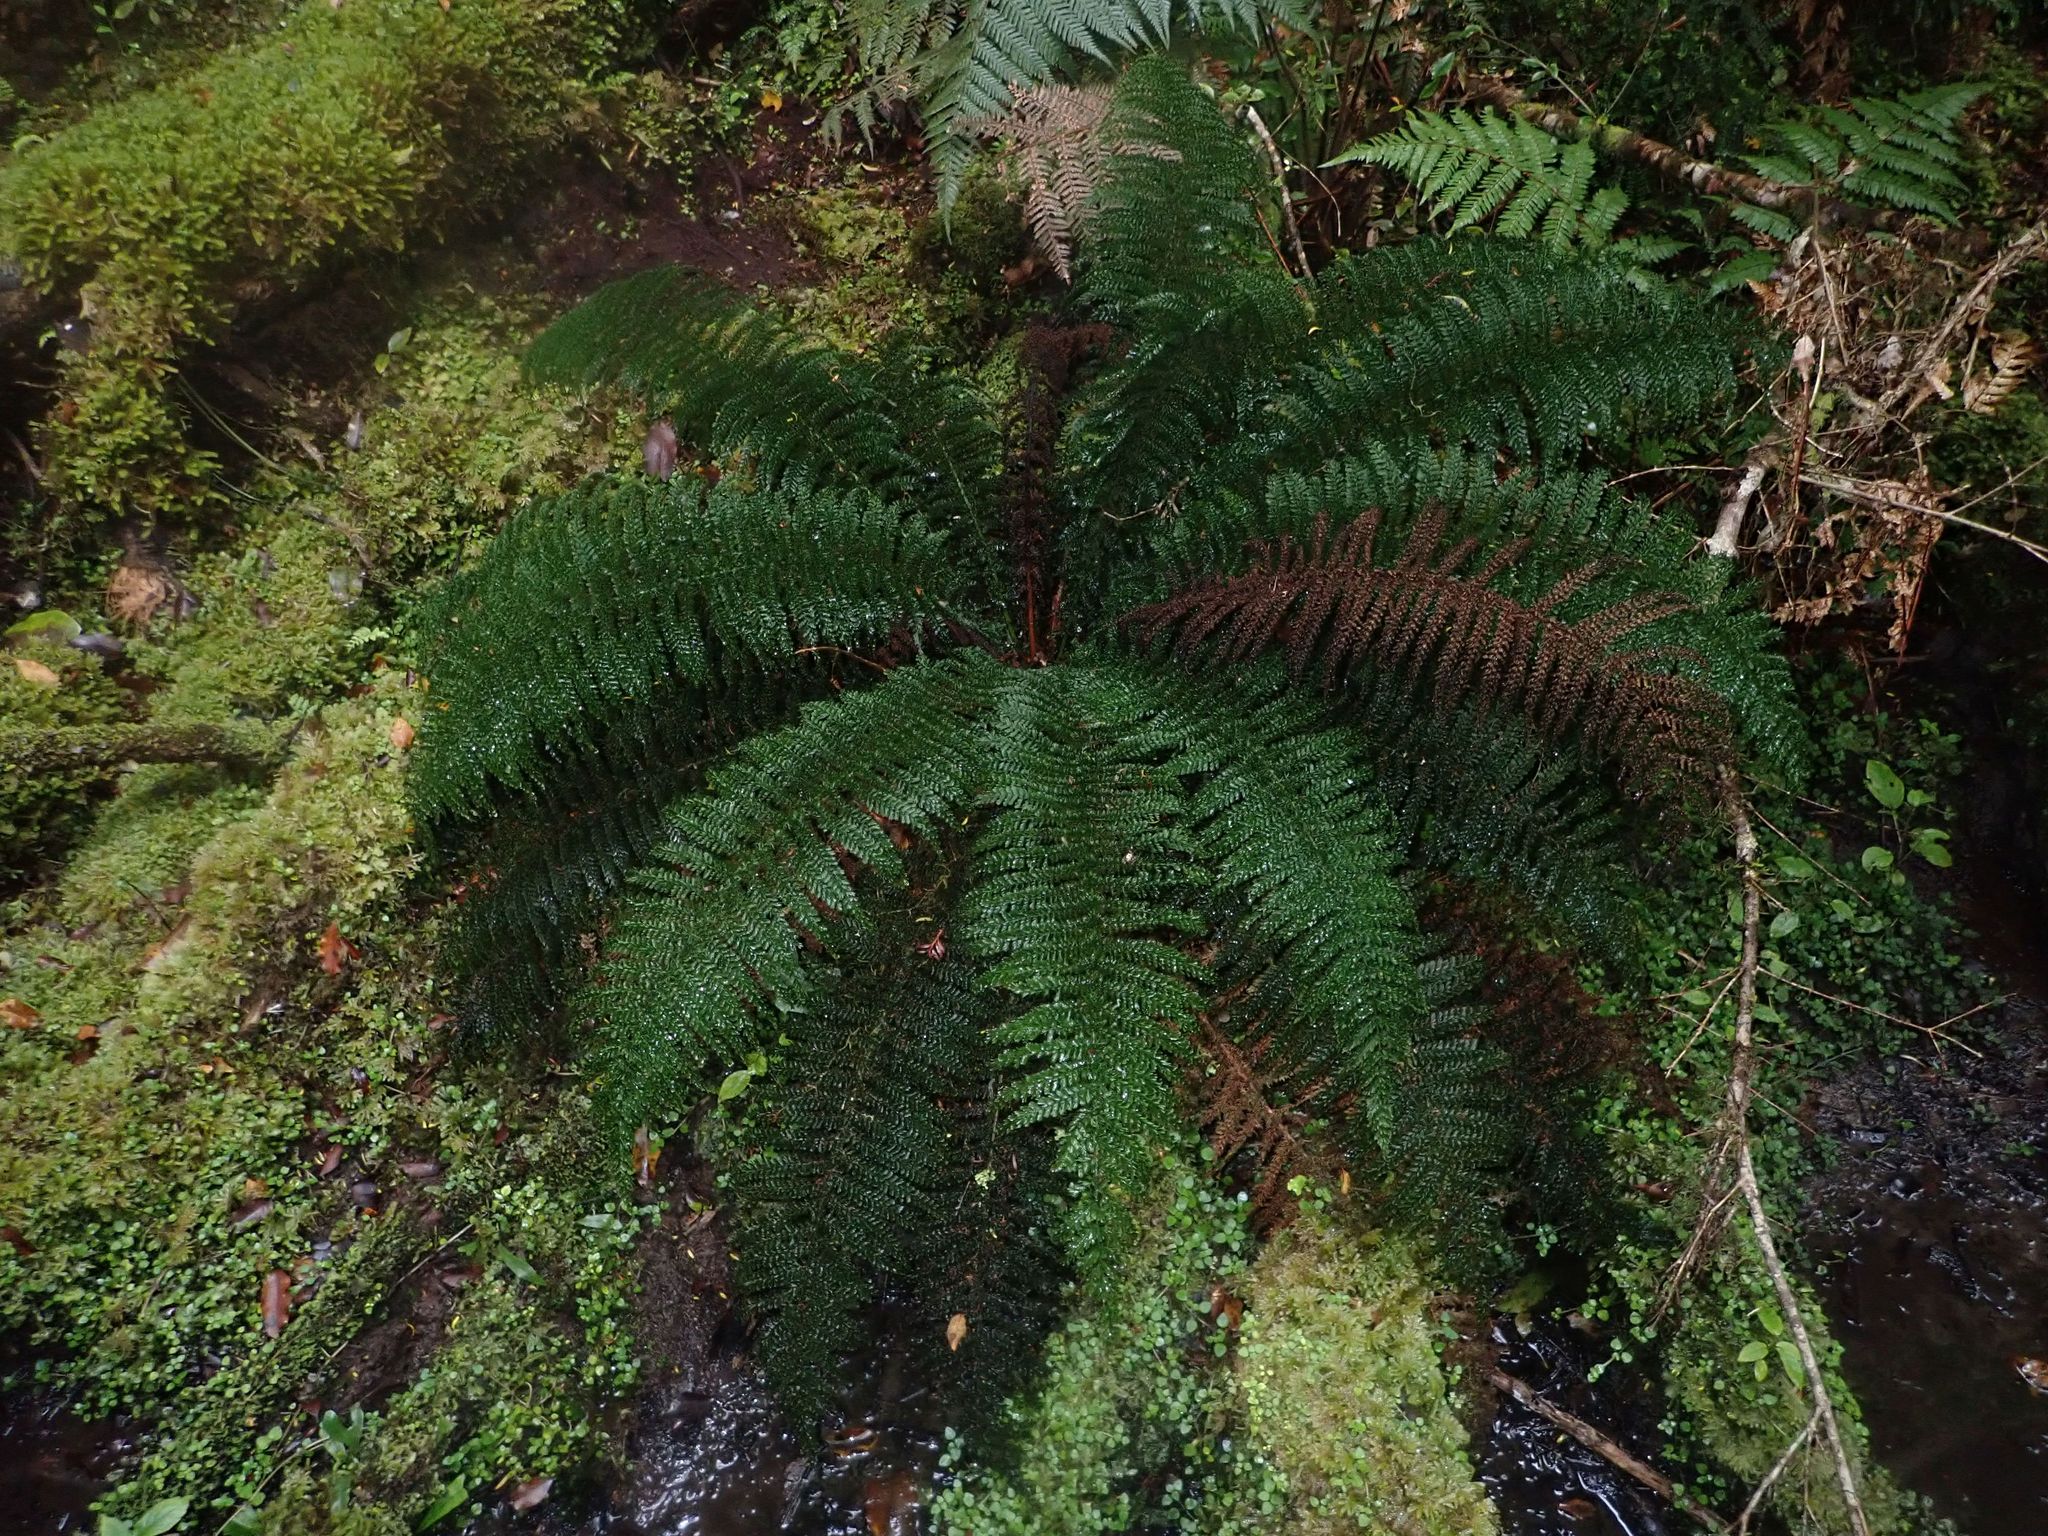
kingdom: Plantae
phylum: Tracheophyta
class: Polypodiopsida
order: Osmundales
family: Osmundaceae
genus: Leptopteris
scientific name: Leptopteris superba
